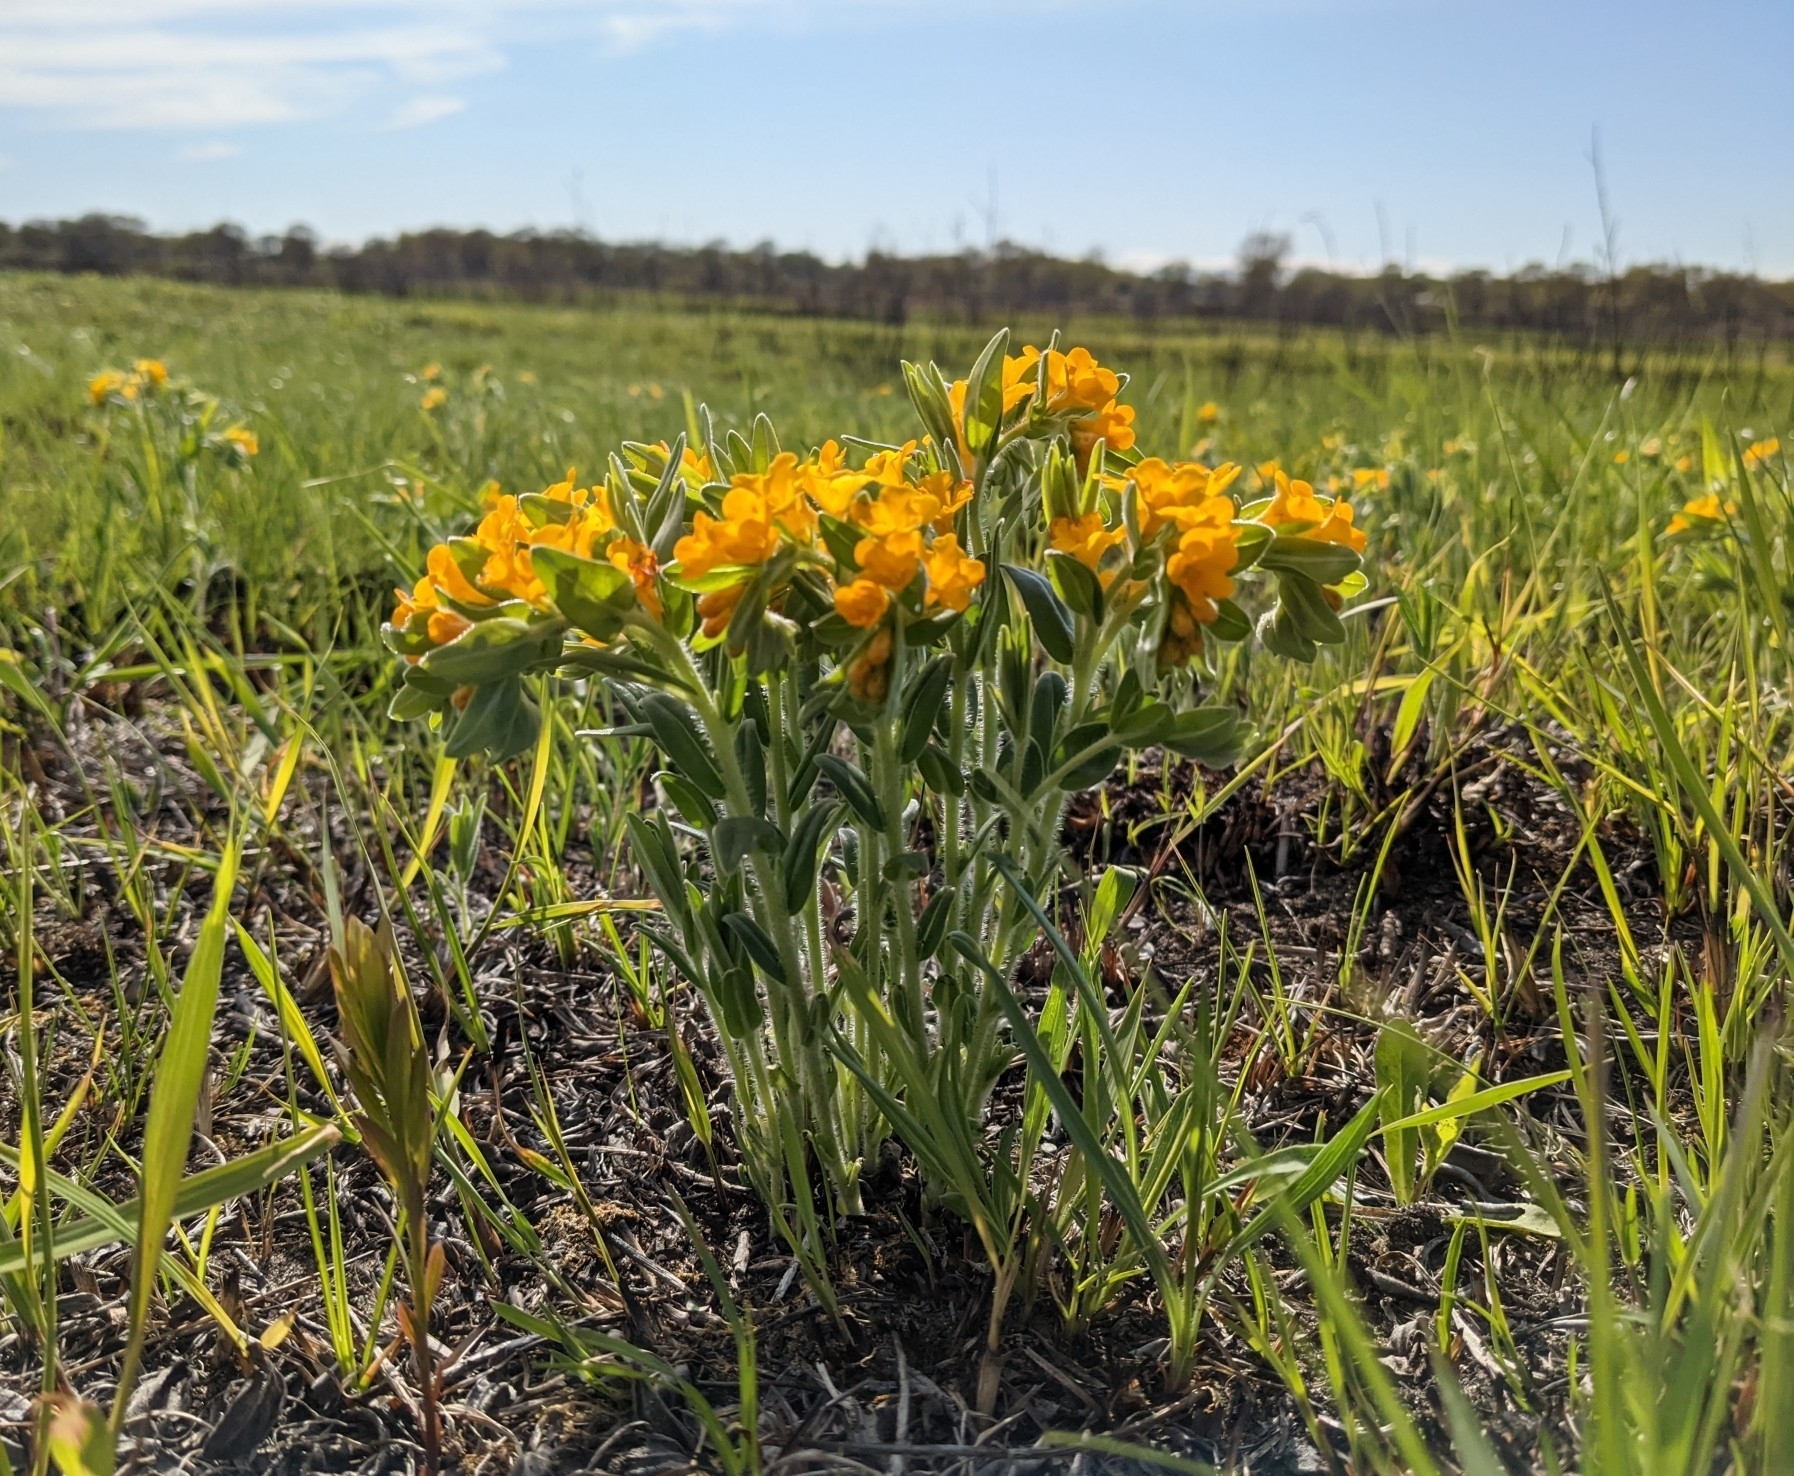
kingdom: Plantae
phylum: Tracheophyta
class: Magnoliopsida
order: Boraginales
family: Boraginaceae
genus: Lithospermum
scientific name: Lithospermum canescens
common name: Hoary puccoon
